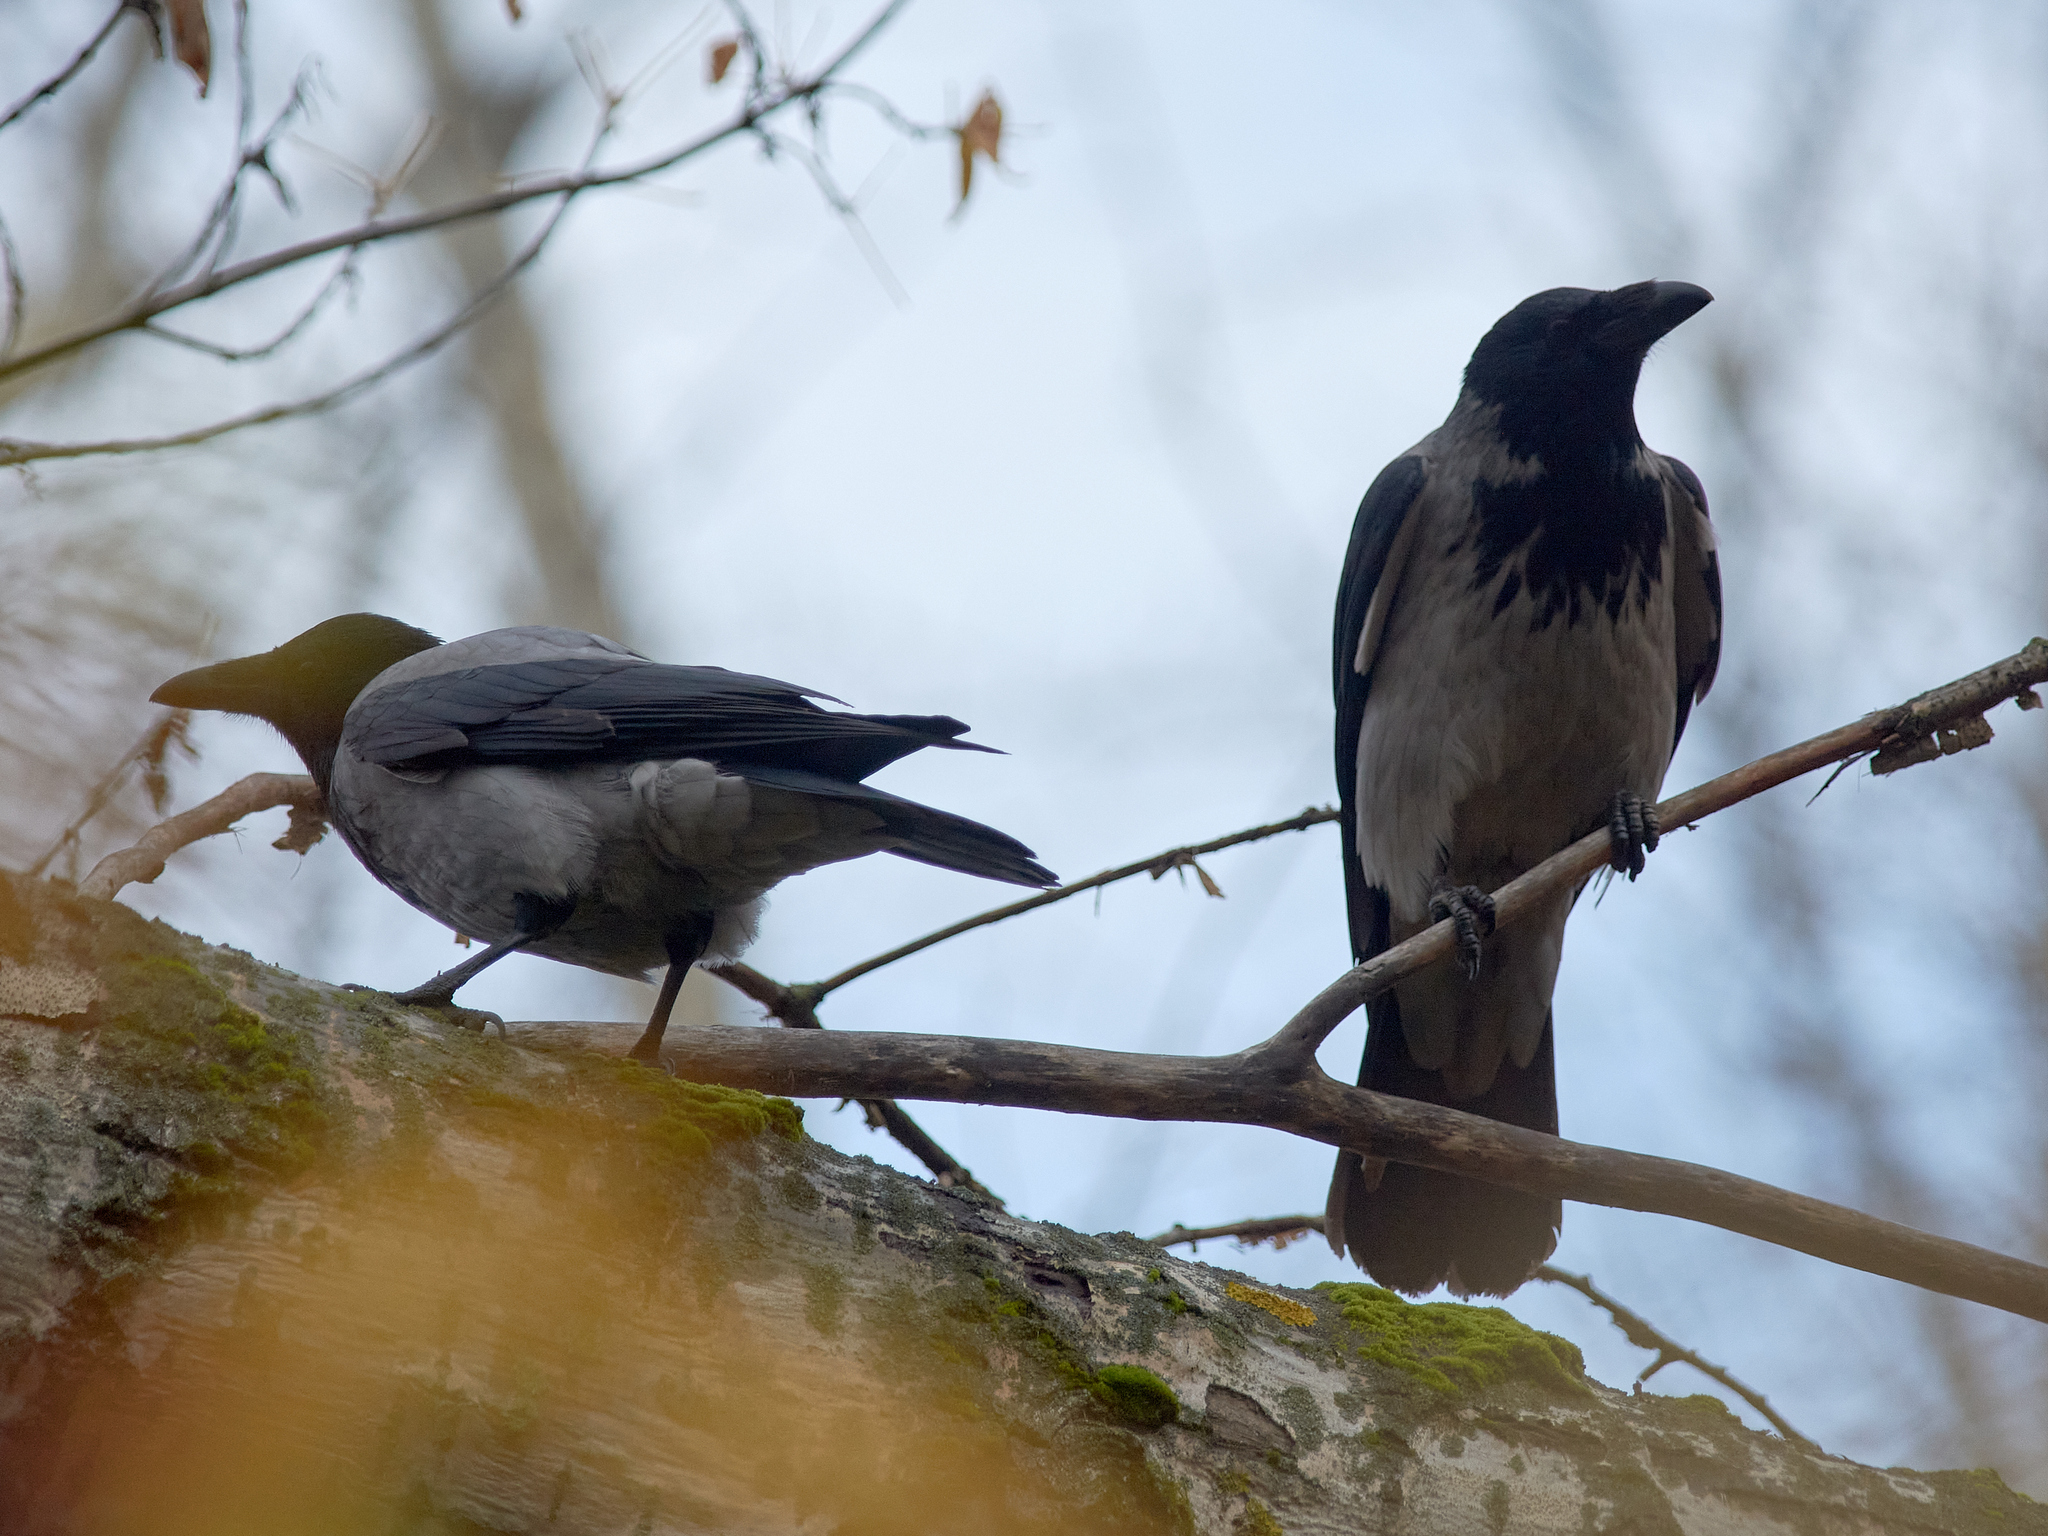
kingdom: Animalia
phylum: Chordata
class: Aves
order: Passeriformes
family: Corvidae
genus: Corvus
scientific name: Corvus cornix
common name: Hooded crow
